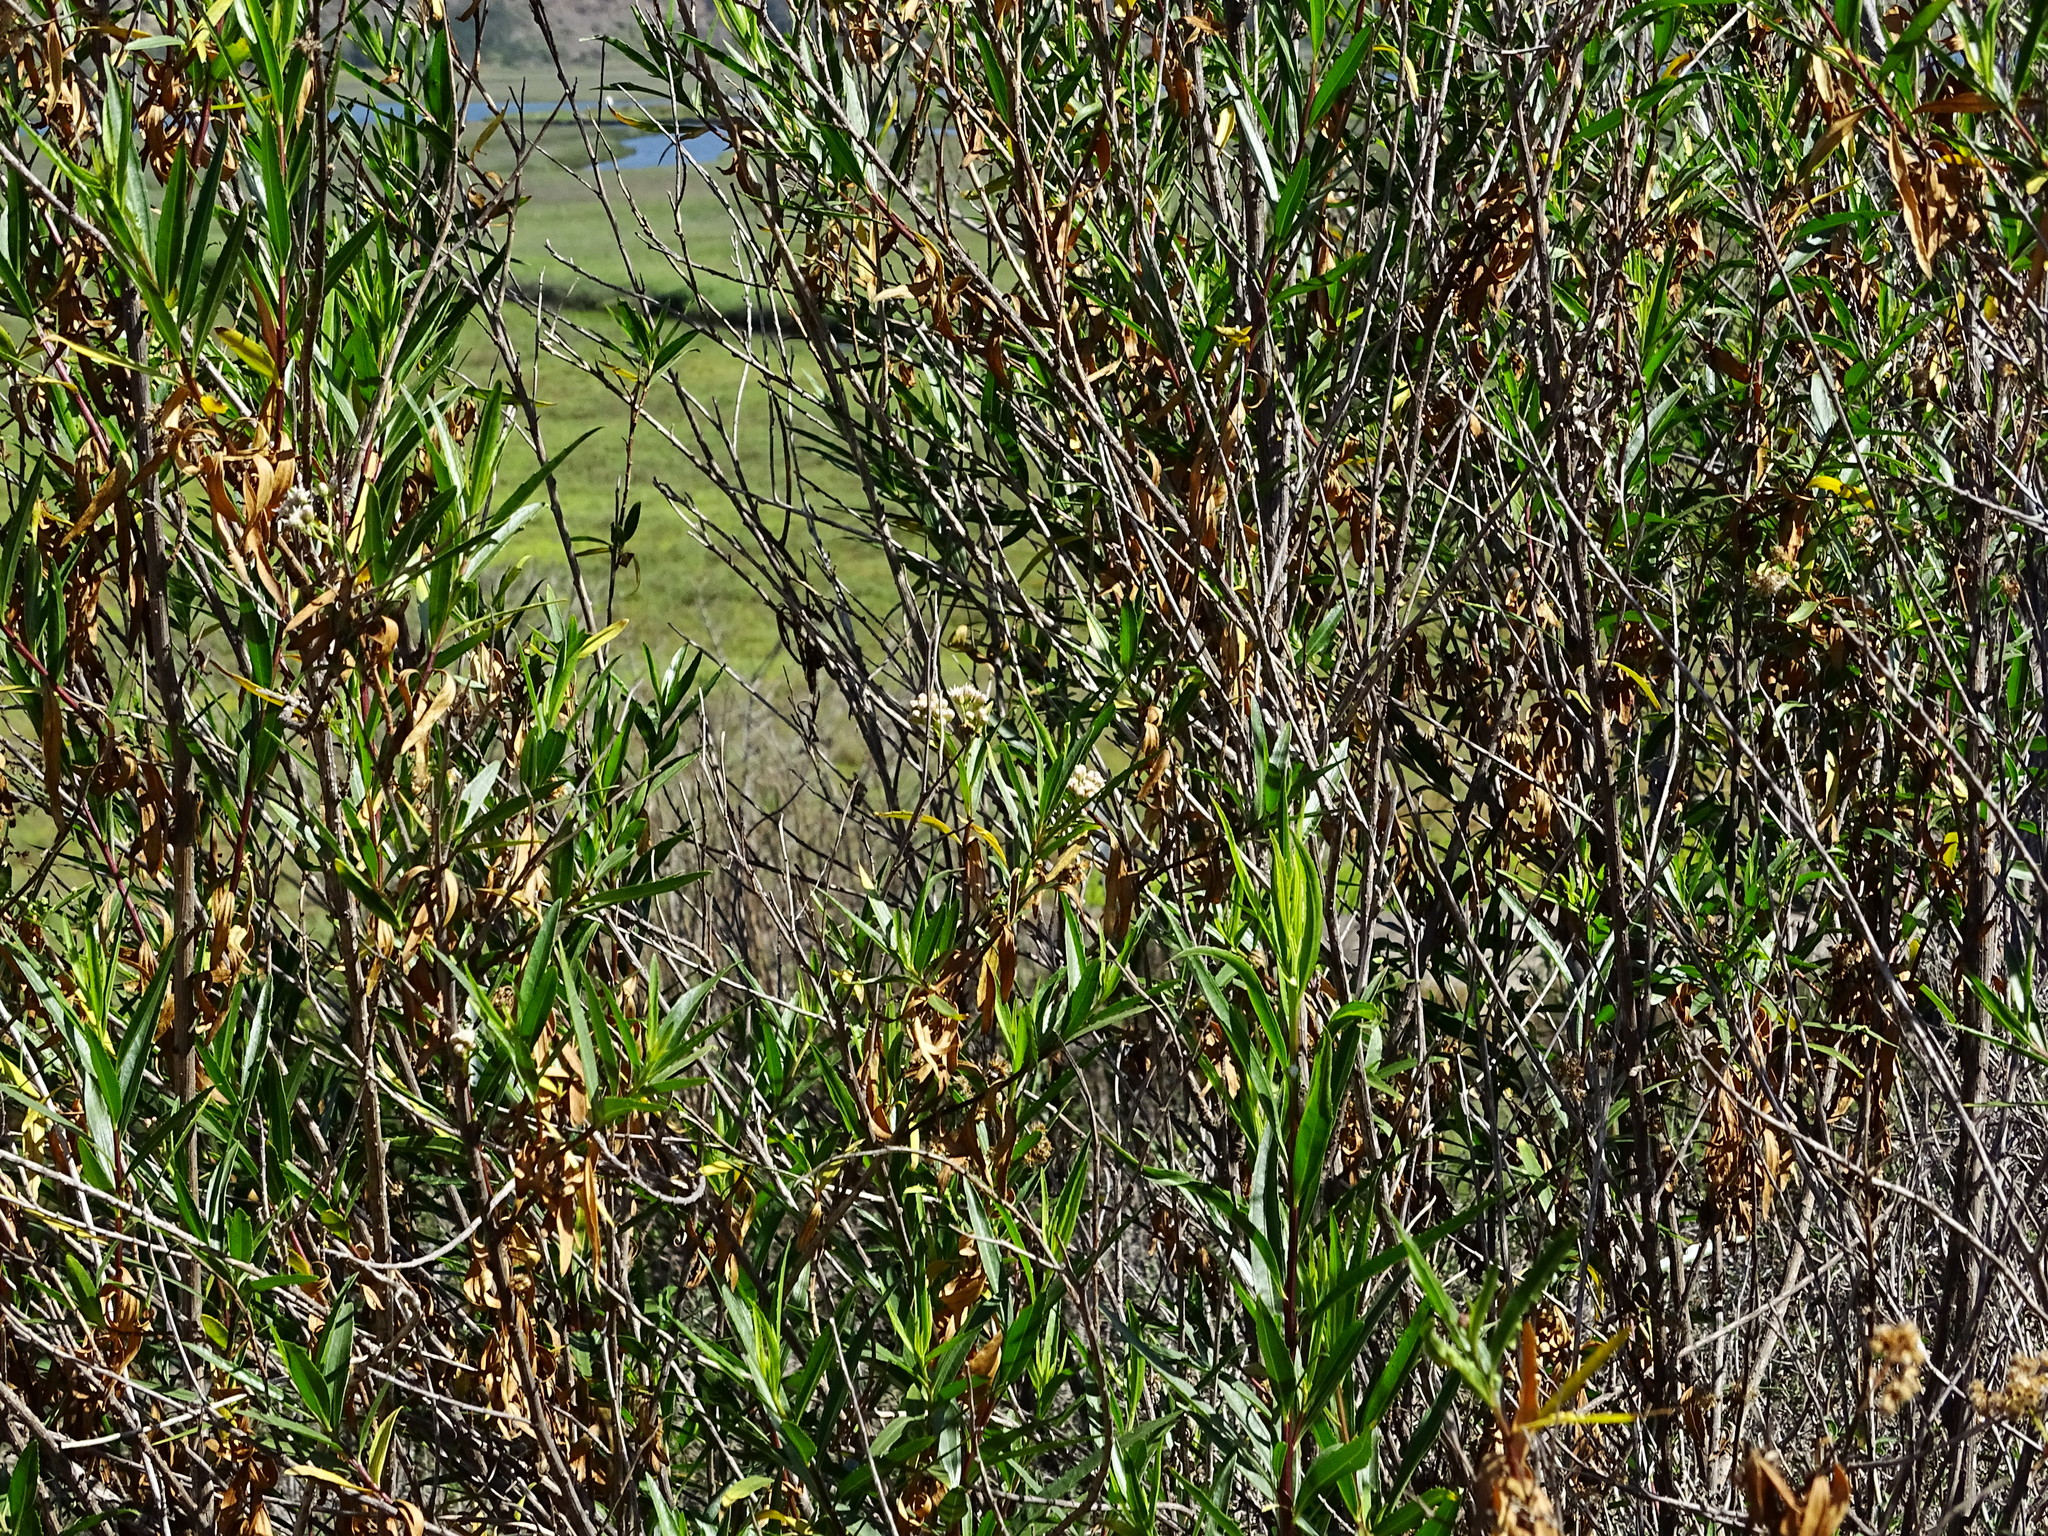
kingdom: Plantae
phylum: Tracheophyta
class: Magnoliopsida
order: Asterales
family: Asteraceae
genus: Baccharis
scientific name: Baccharis salicifolia
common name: Sticky baccharis
